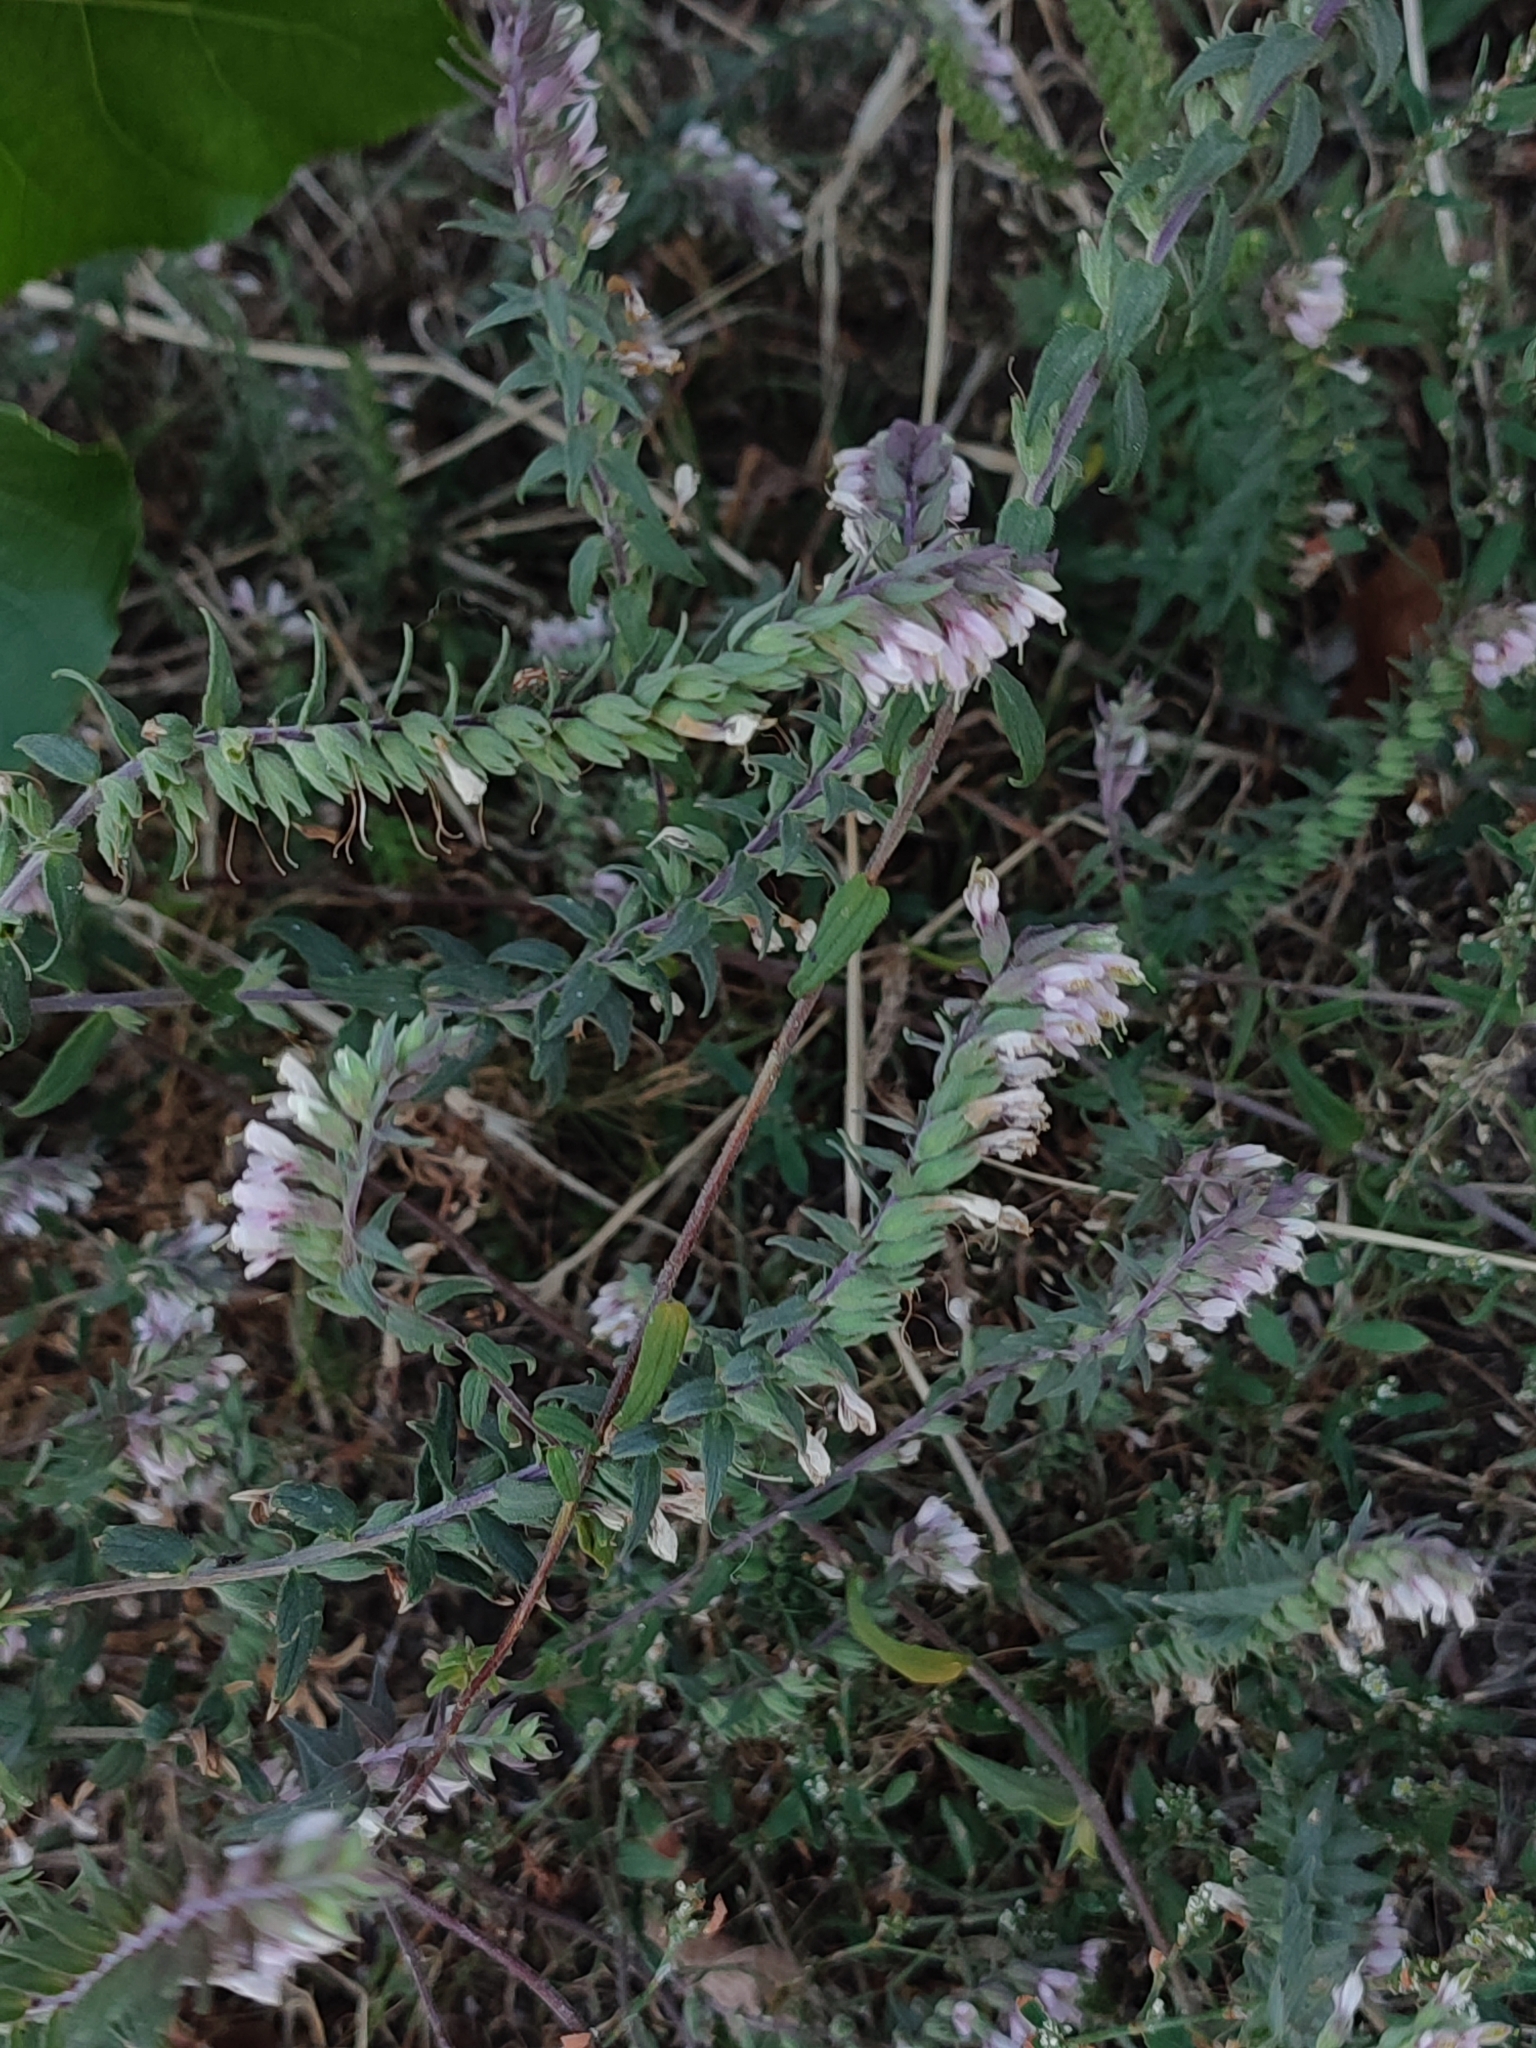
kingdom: Plantae
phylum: Tracheophyta
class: Magnoliopsida
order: Lamiales
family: Orobanchaceae
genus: Odontites
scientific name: Odontites vulgaris
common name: Broomrape
